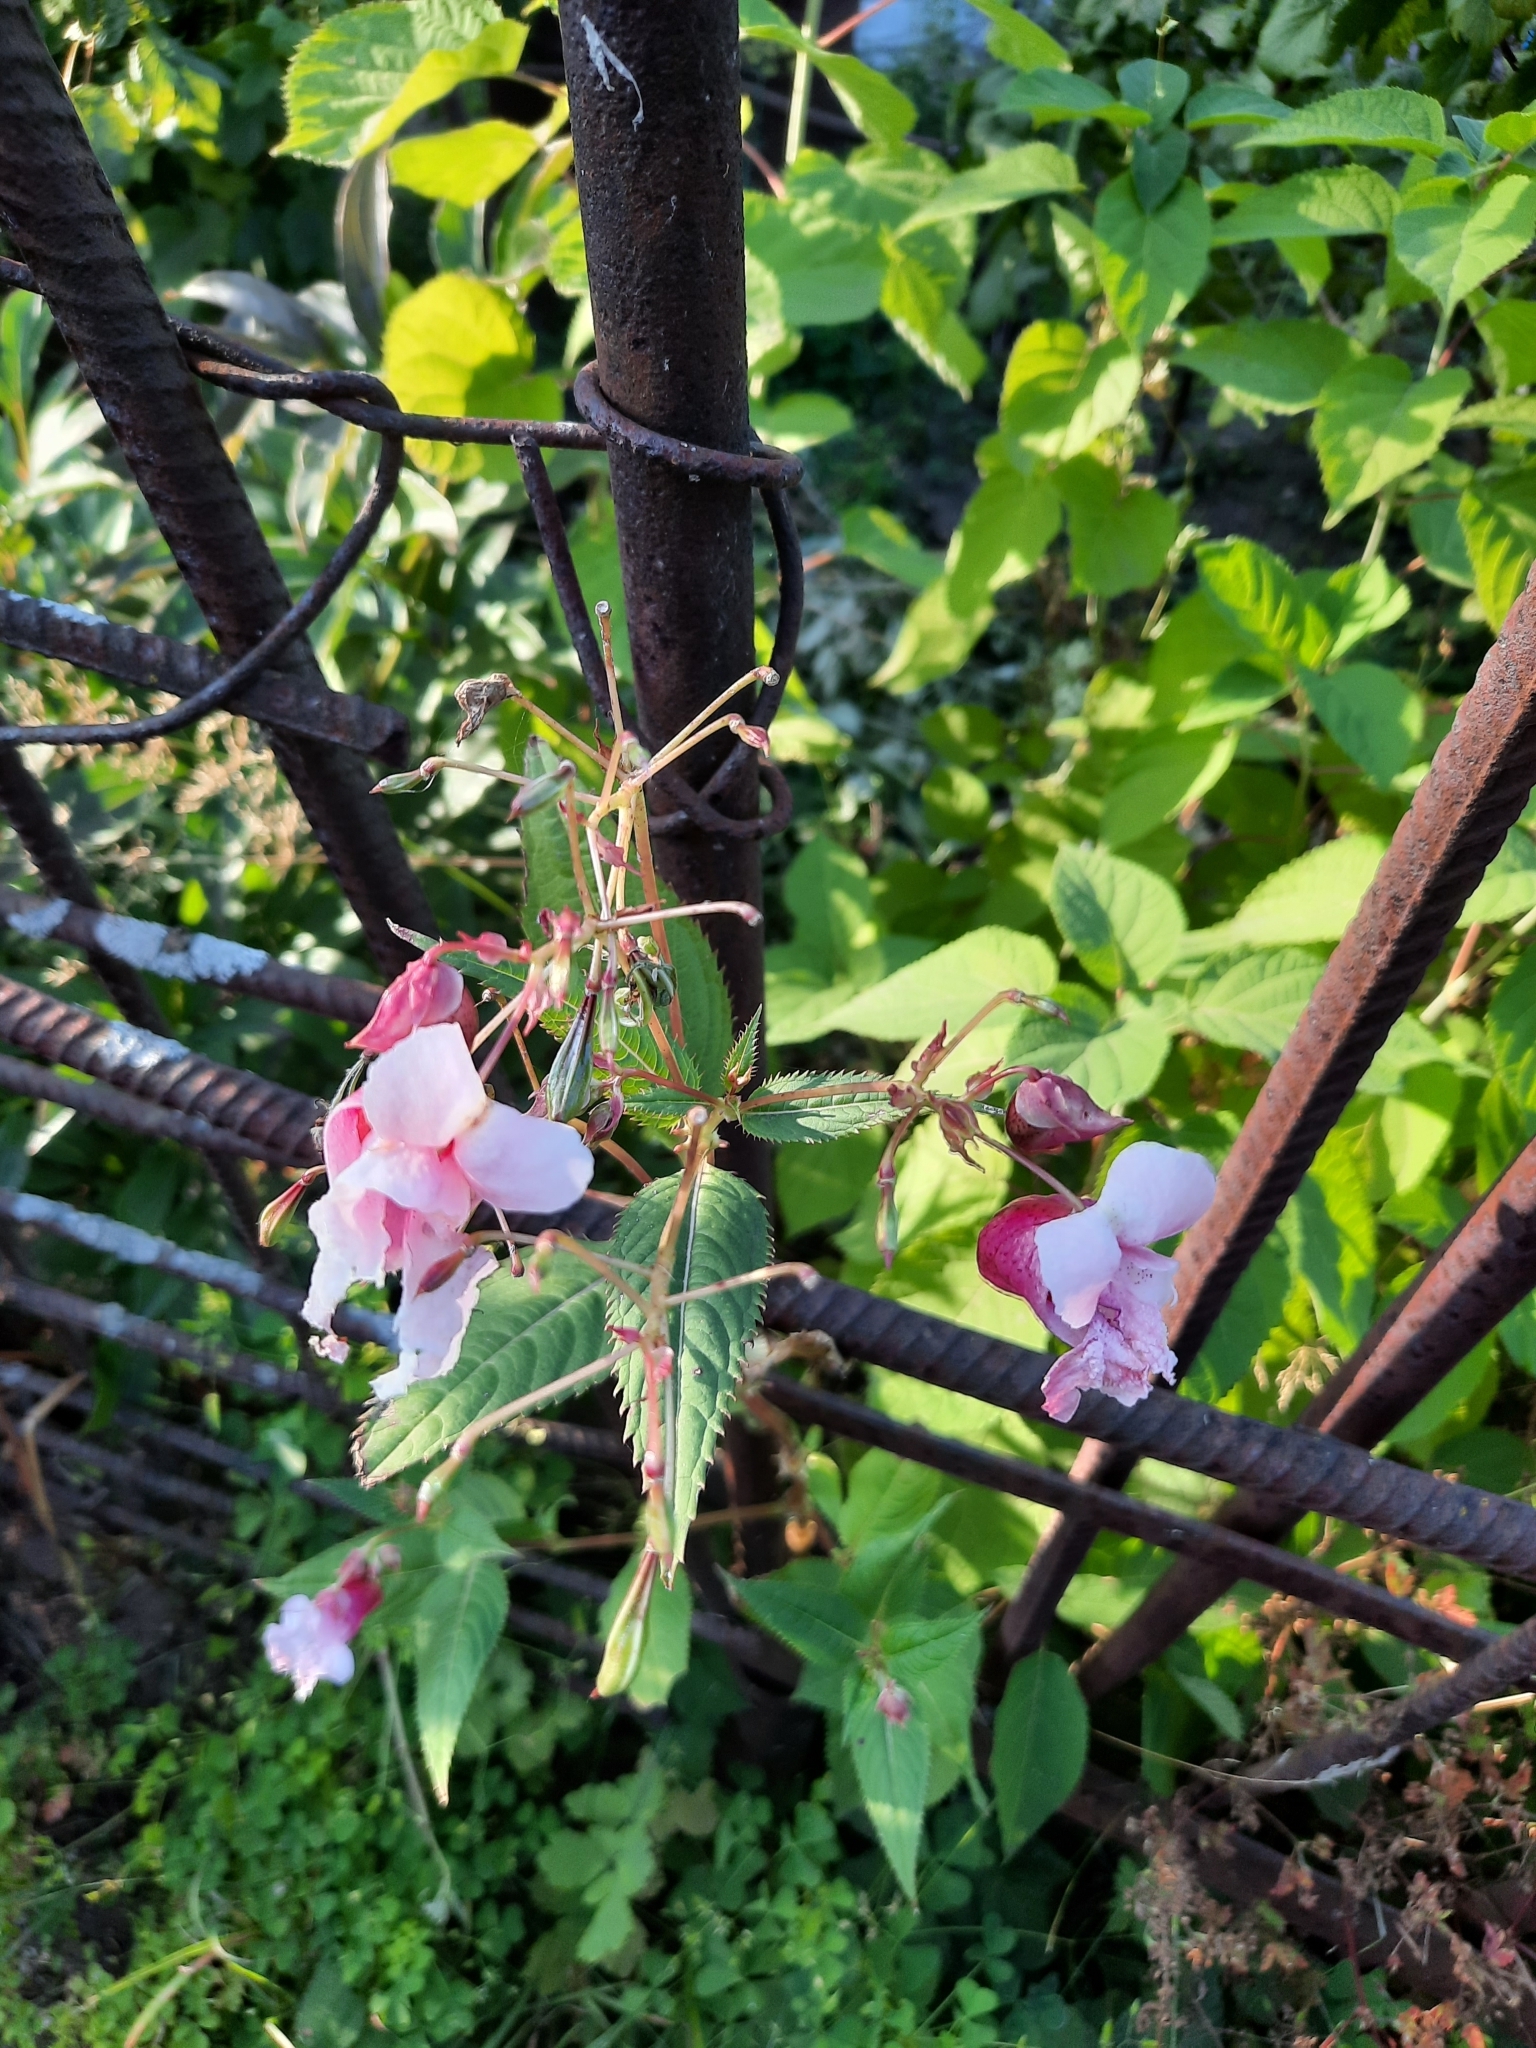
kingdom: Plantae
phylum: Tracheophyta
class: Magnoliopsida
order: Ericales
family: Balsaminaceae
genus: Impatiens
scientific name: Impatiens glandulifera
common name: Himalayan balsam
